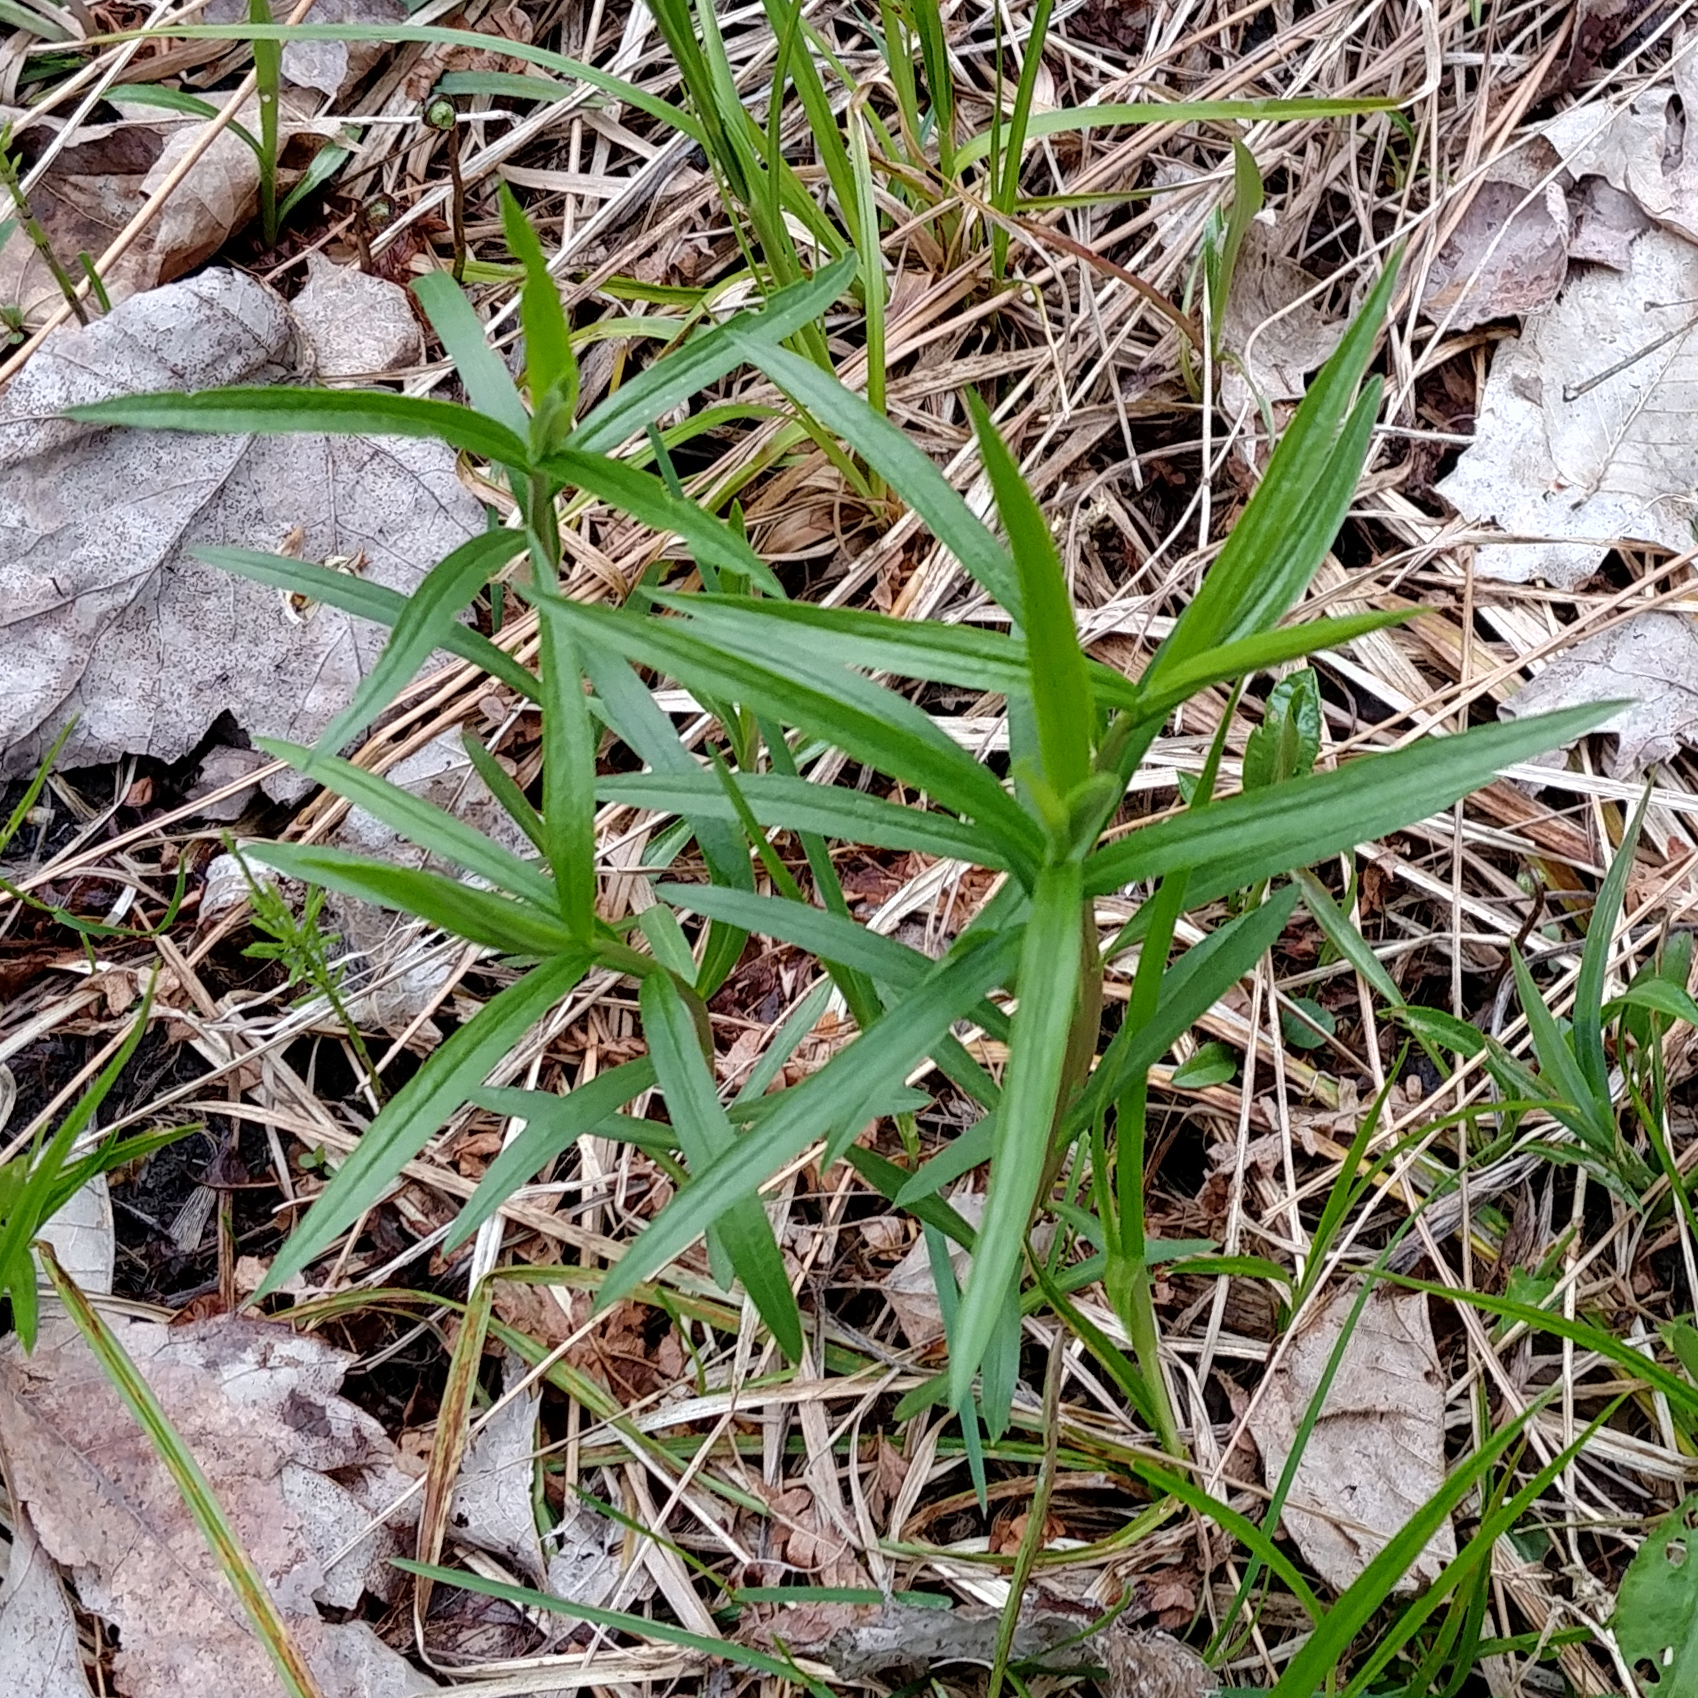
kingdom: Plantae
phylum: Tracheophyta
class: Magnoliopsida
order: Asterales
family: Asteraceae
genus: Euthamia
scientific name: Euthamia graminifolia
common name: Common goldentop
